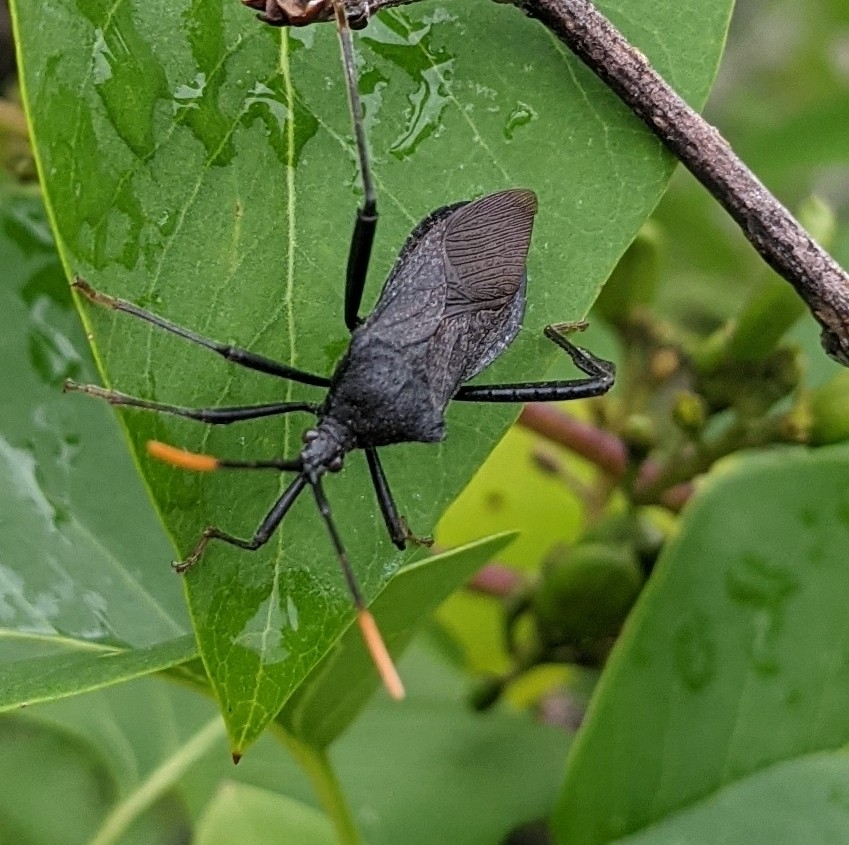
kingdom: Animalia
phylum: Arthropoda
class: Insecta
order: Hemiptera
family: Coreidae
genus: Acanthocephala
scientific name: Acanthocephala terminalis
